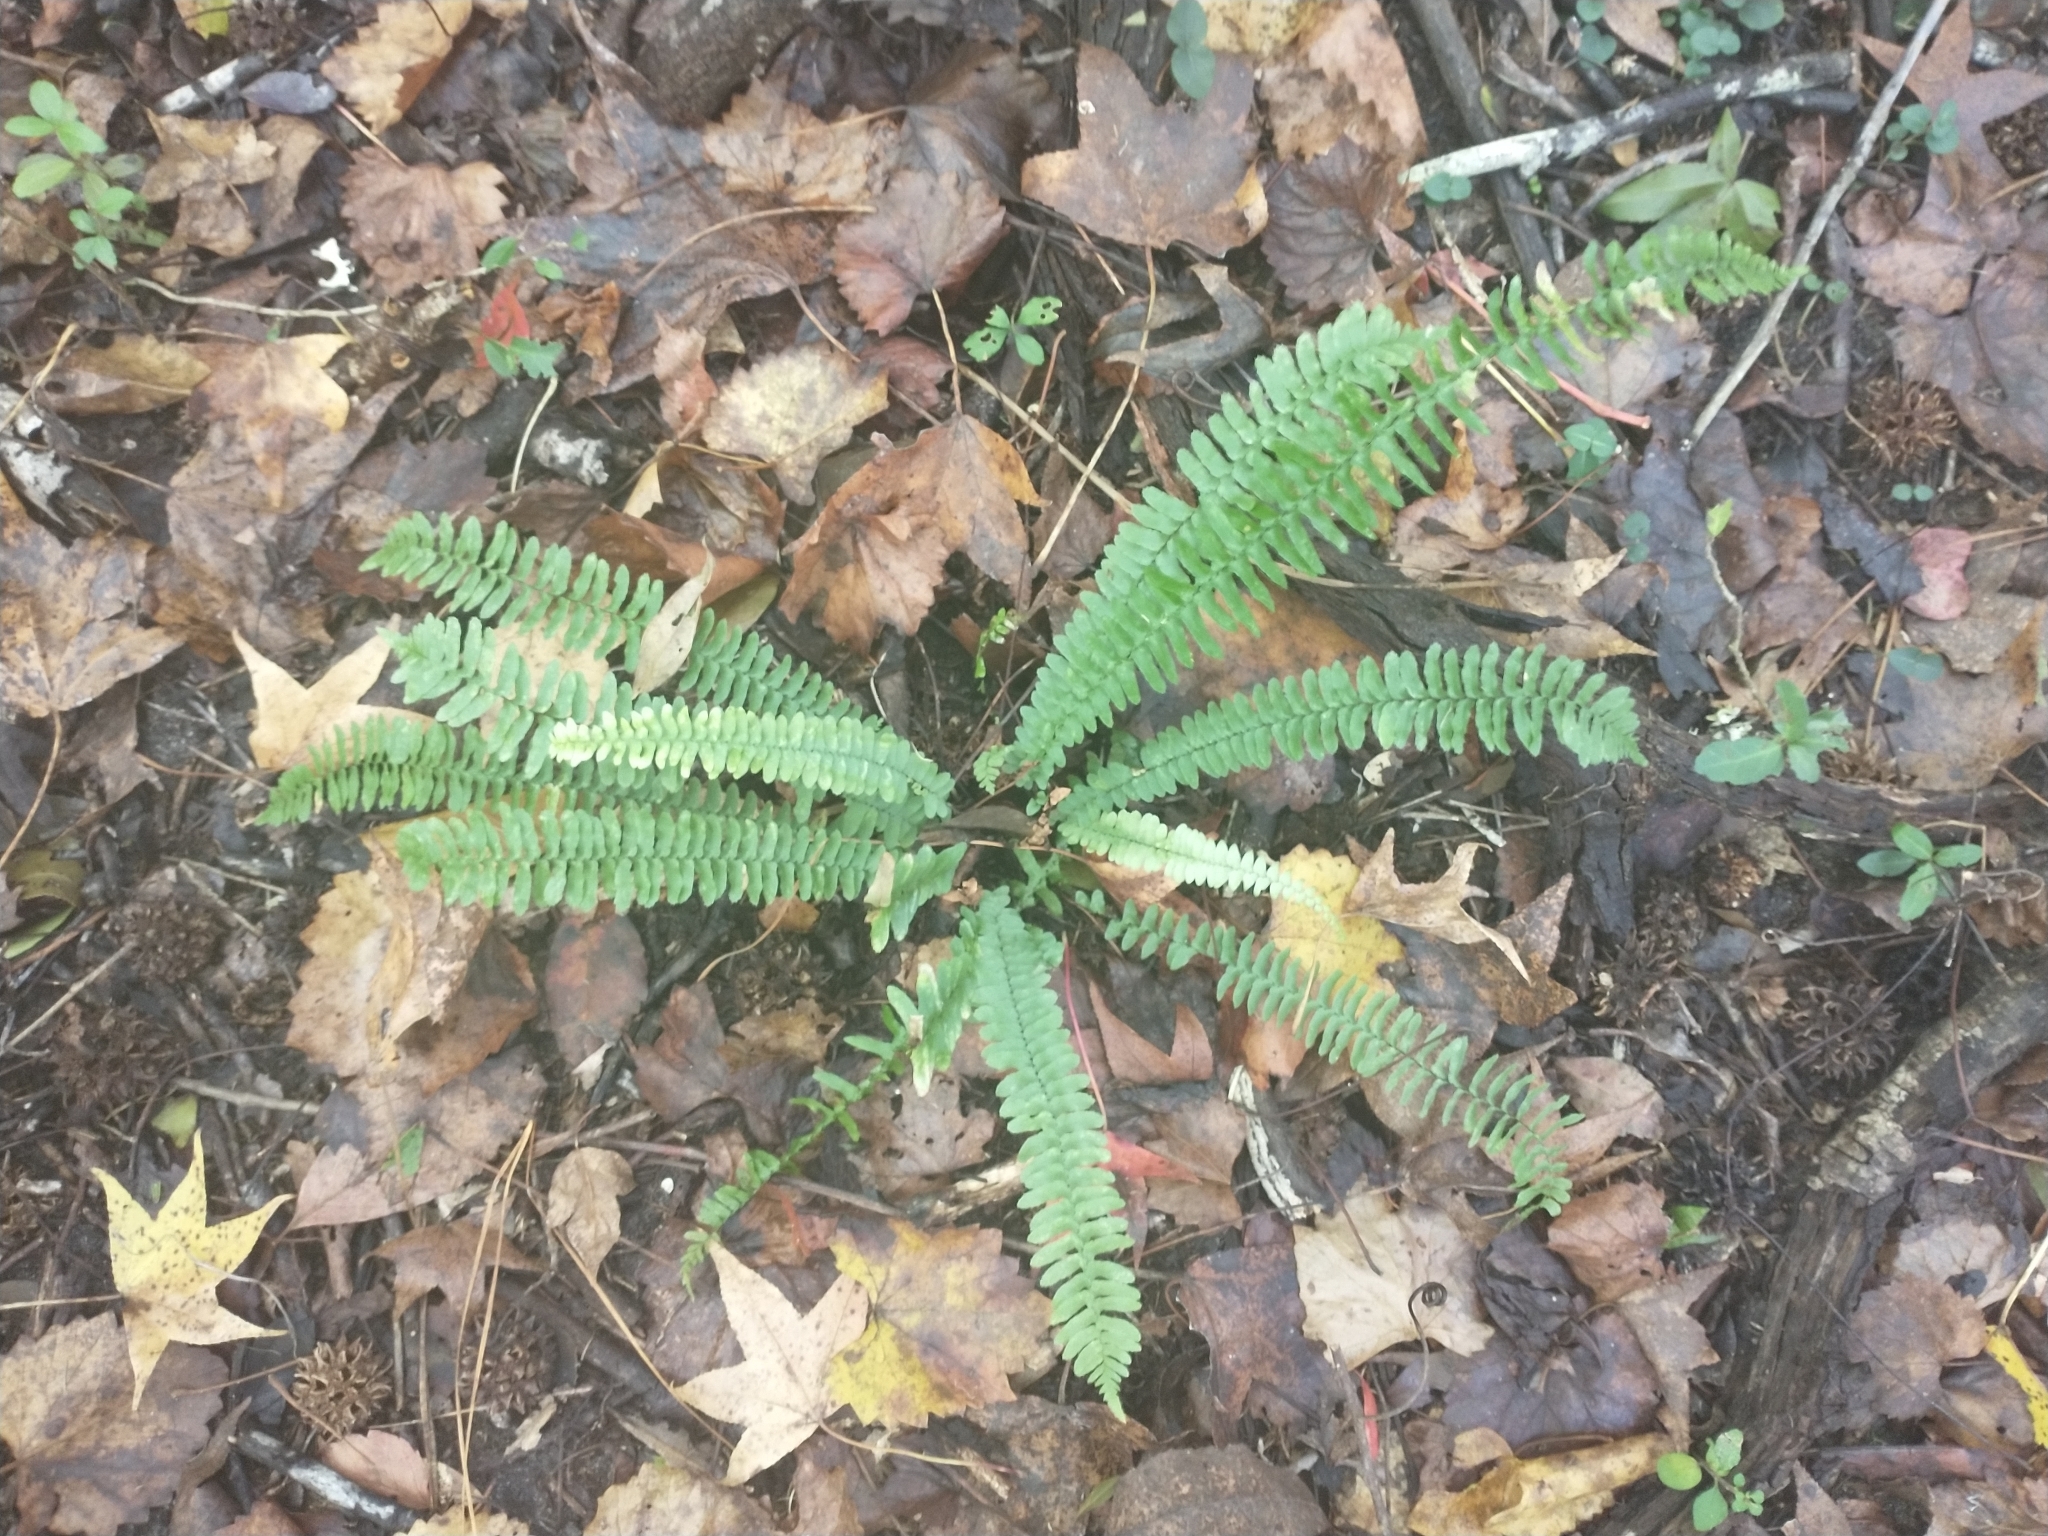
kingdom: Plantae
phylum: Tracheophyta
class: Polypodiopsida
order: Polypodiales
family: Aspleniaceae
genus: Asplenium
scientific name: Asplenium platyneuron
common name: Ebony spleenwort
